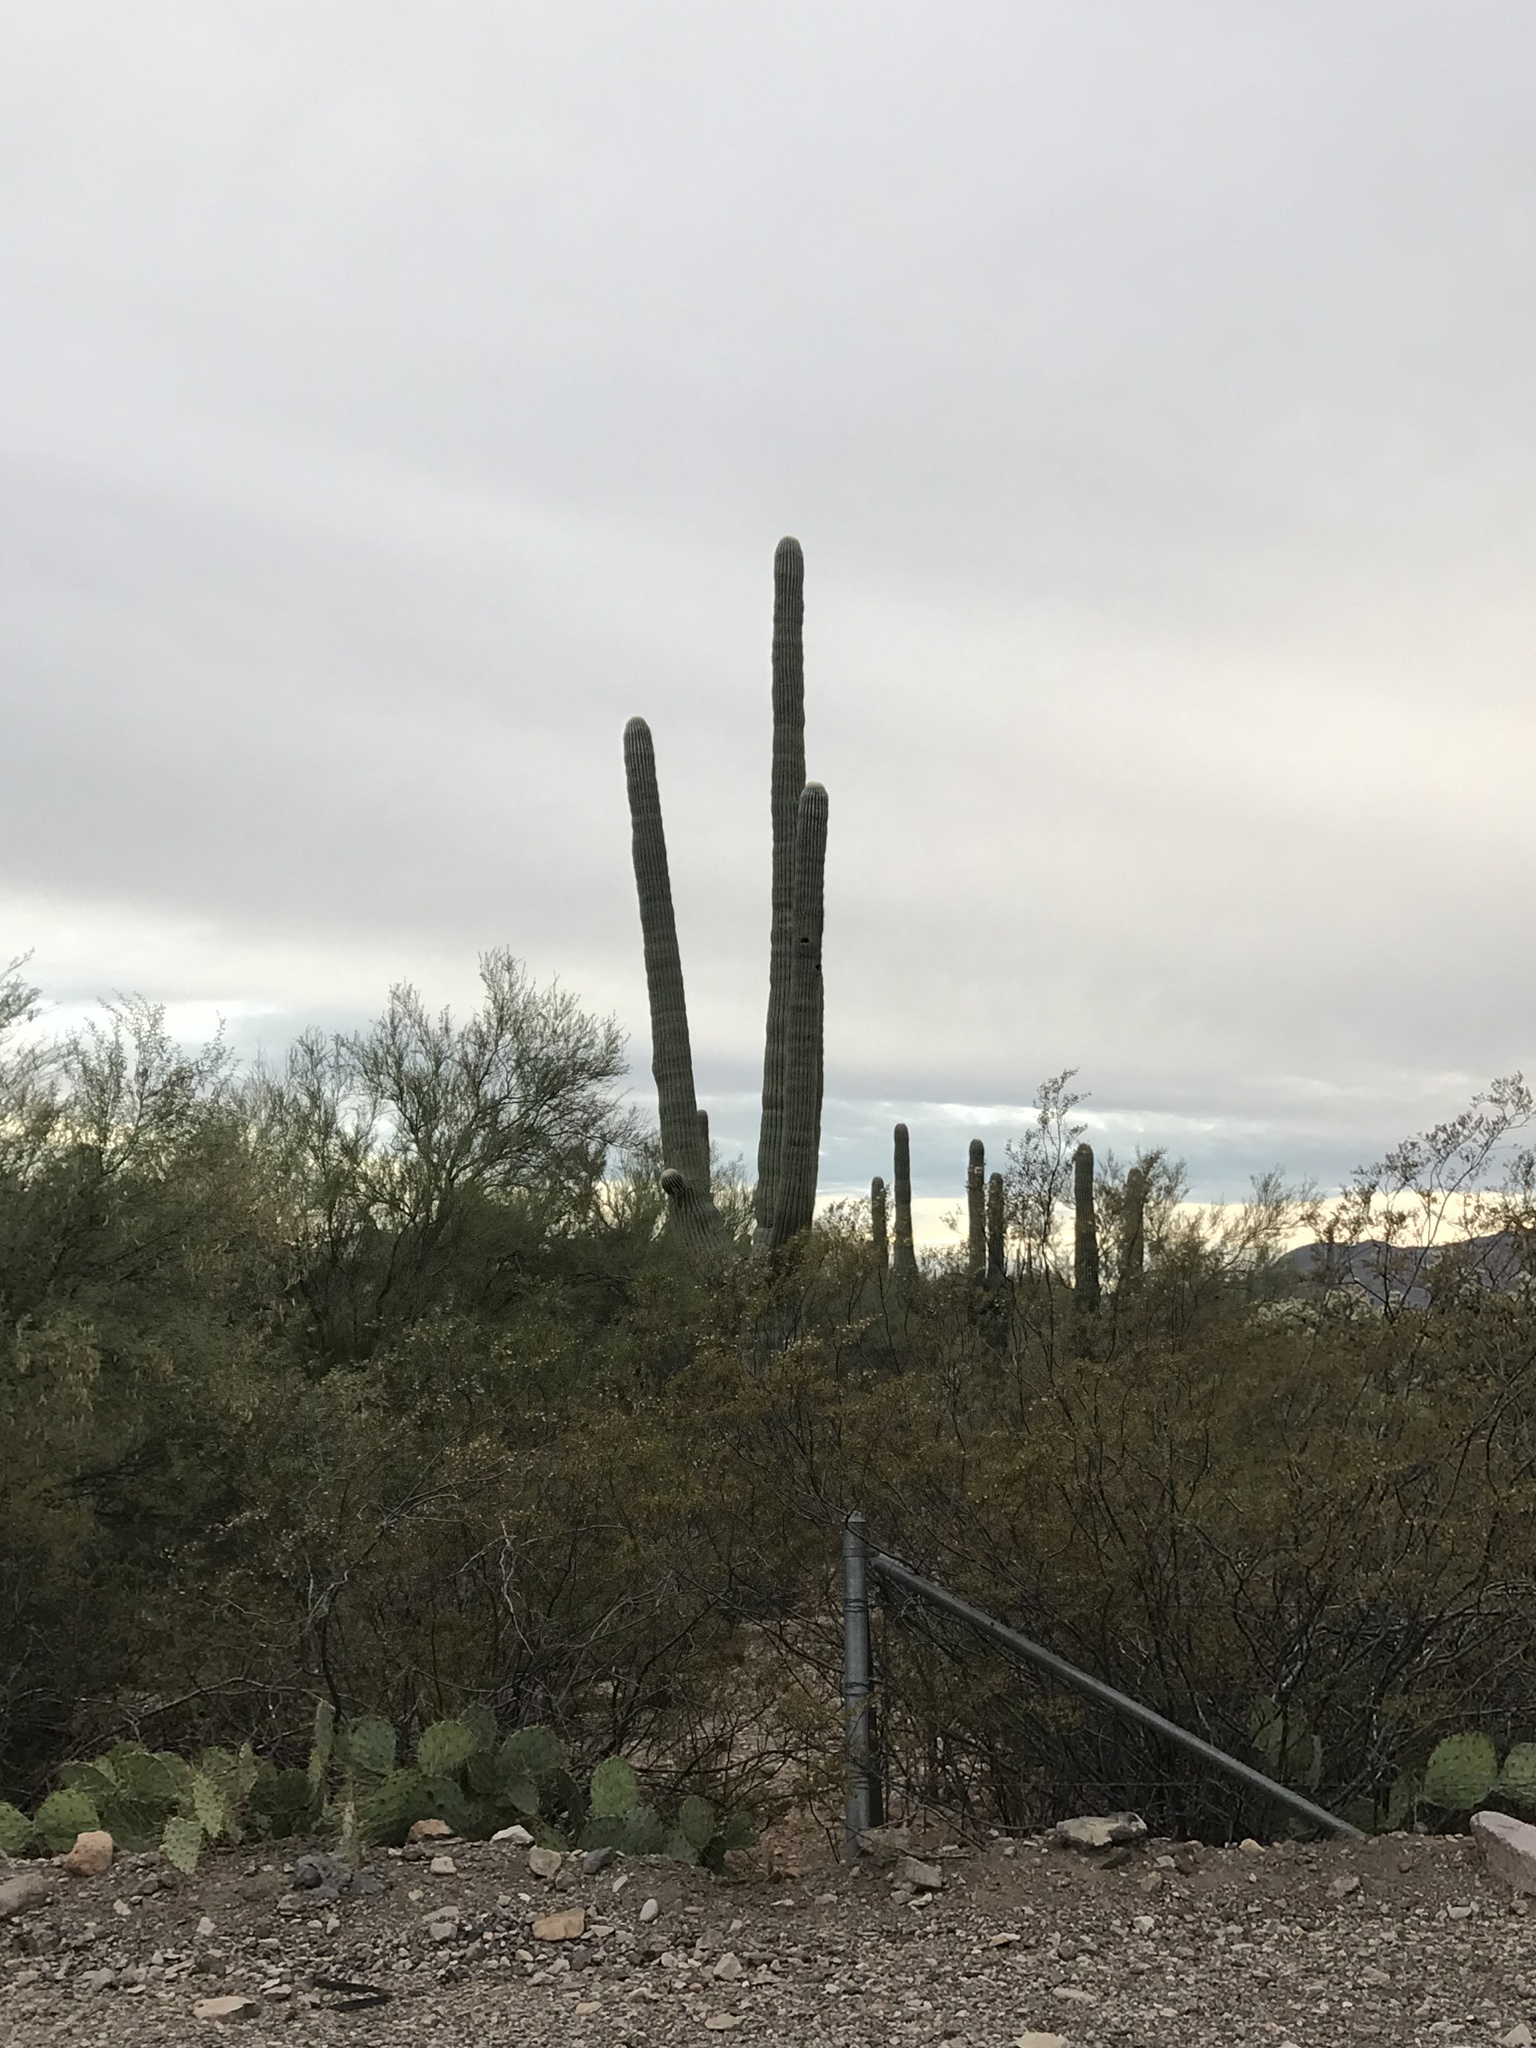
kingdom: Plantae
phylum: Tracheophyta
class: Magnoliopsida
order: Zygophyllales
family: Zygophyllaceae
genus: Larrea
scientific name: Larrea tridentata
